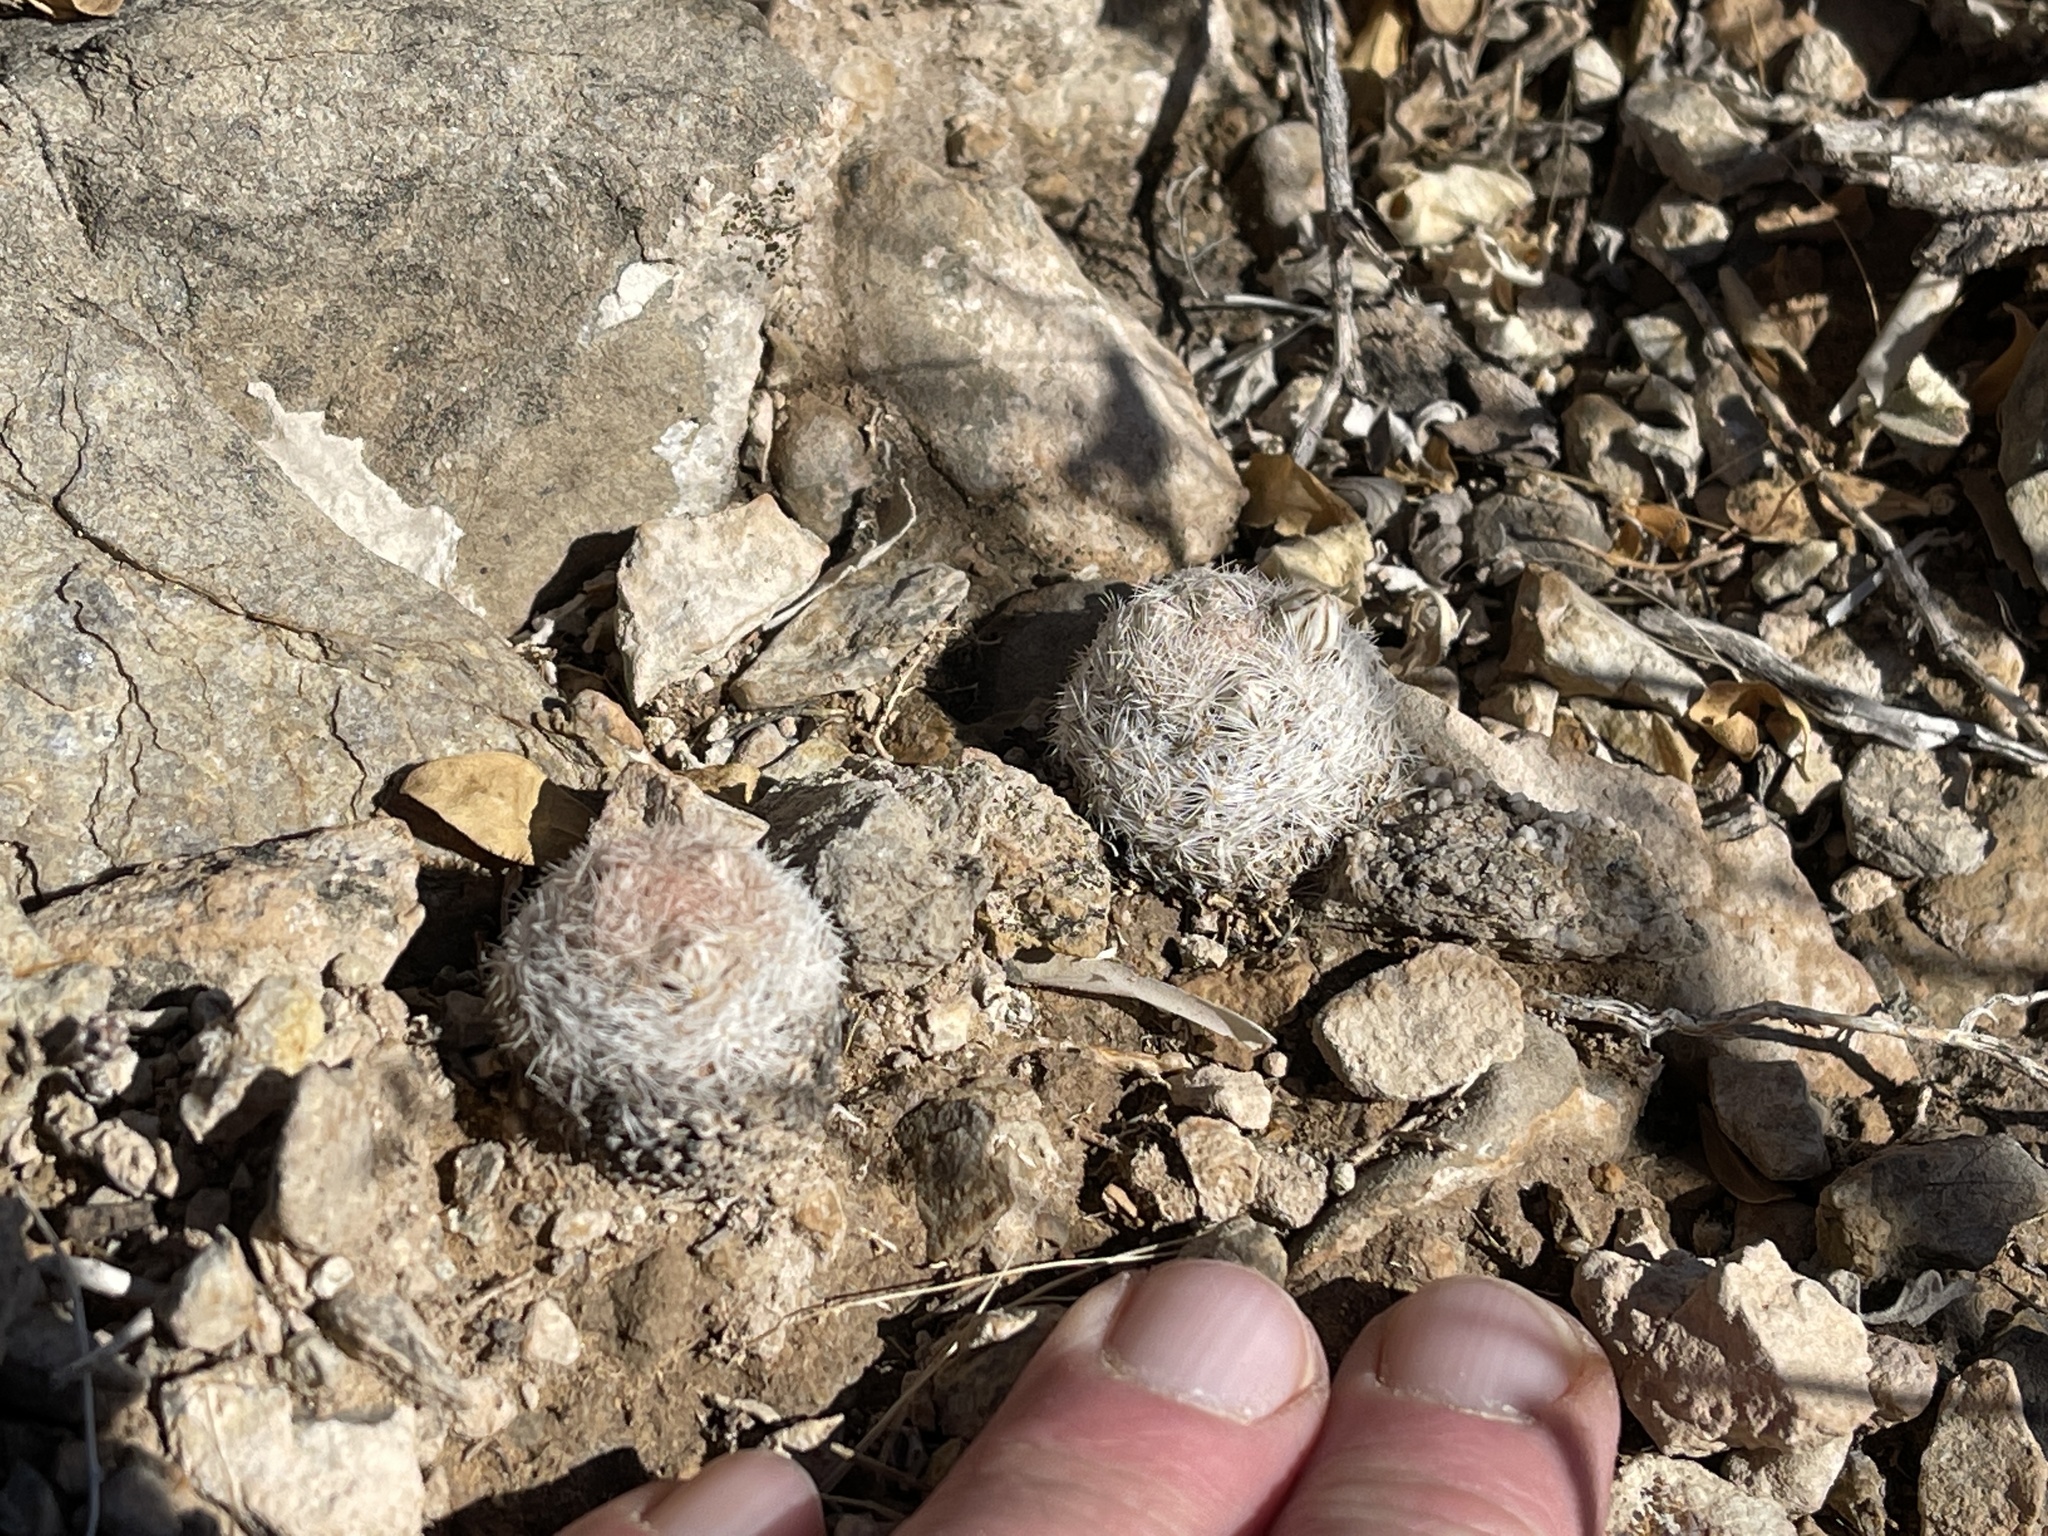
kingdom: Plantae
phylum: Tracheophyta
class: Magnoliopsida
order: Caryophyllales
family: Cactaceae
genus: Mammillaria
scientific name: Mammillaria lasiacantha
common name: Lace-spine nipple cactus
